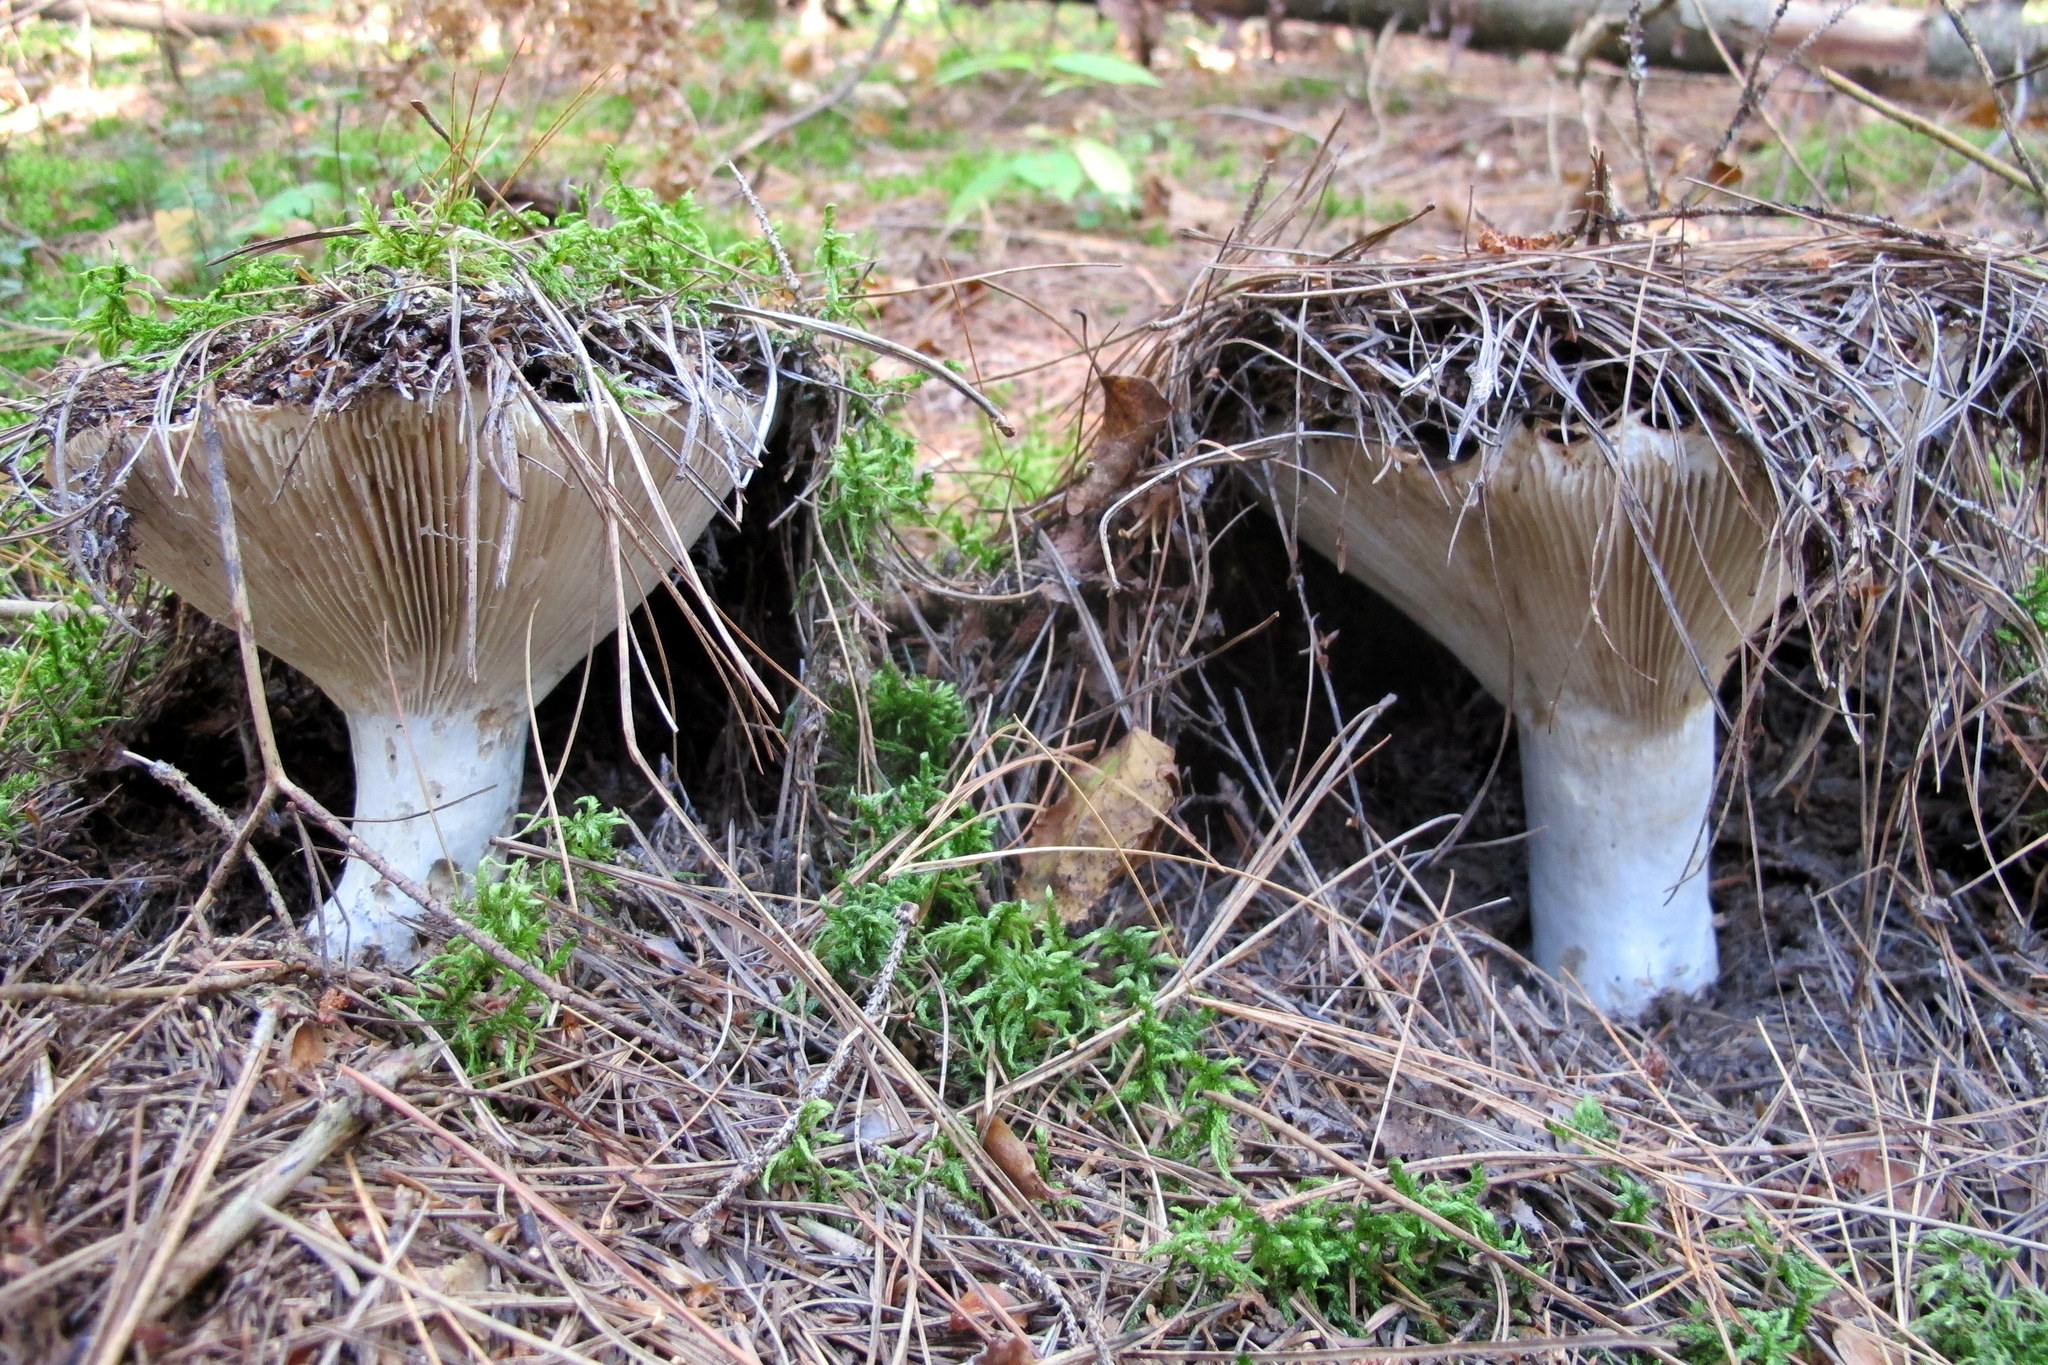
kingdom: Fungi
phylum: Basidiomycota
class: Agaricomycetes
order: Russulales
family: Russulaceae
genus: Russula
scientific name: Russula brevipes
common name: Short-stemmed russula
